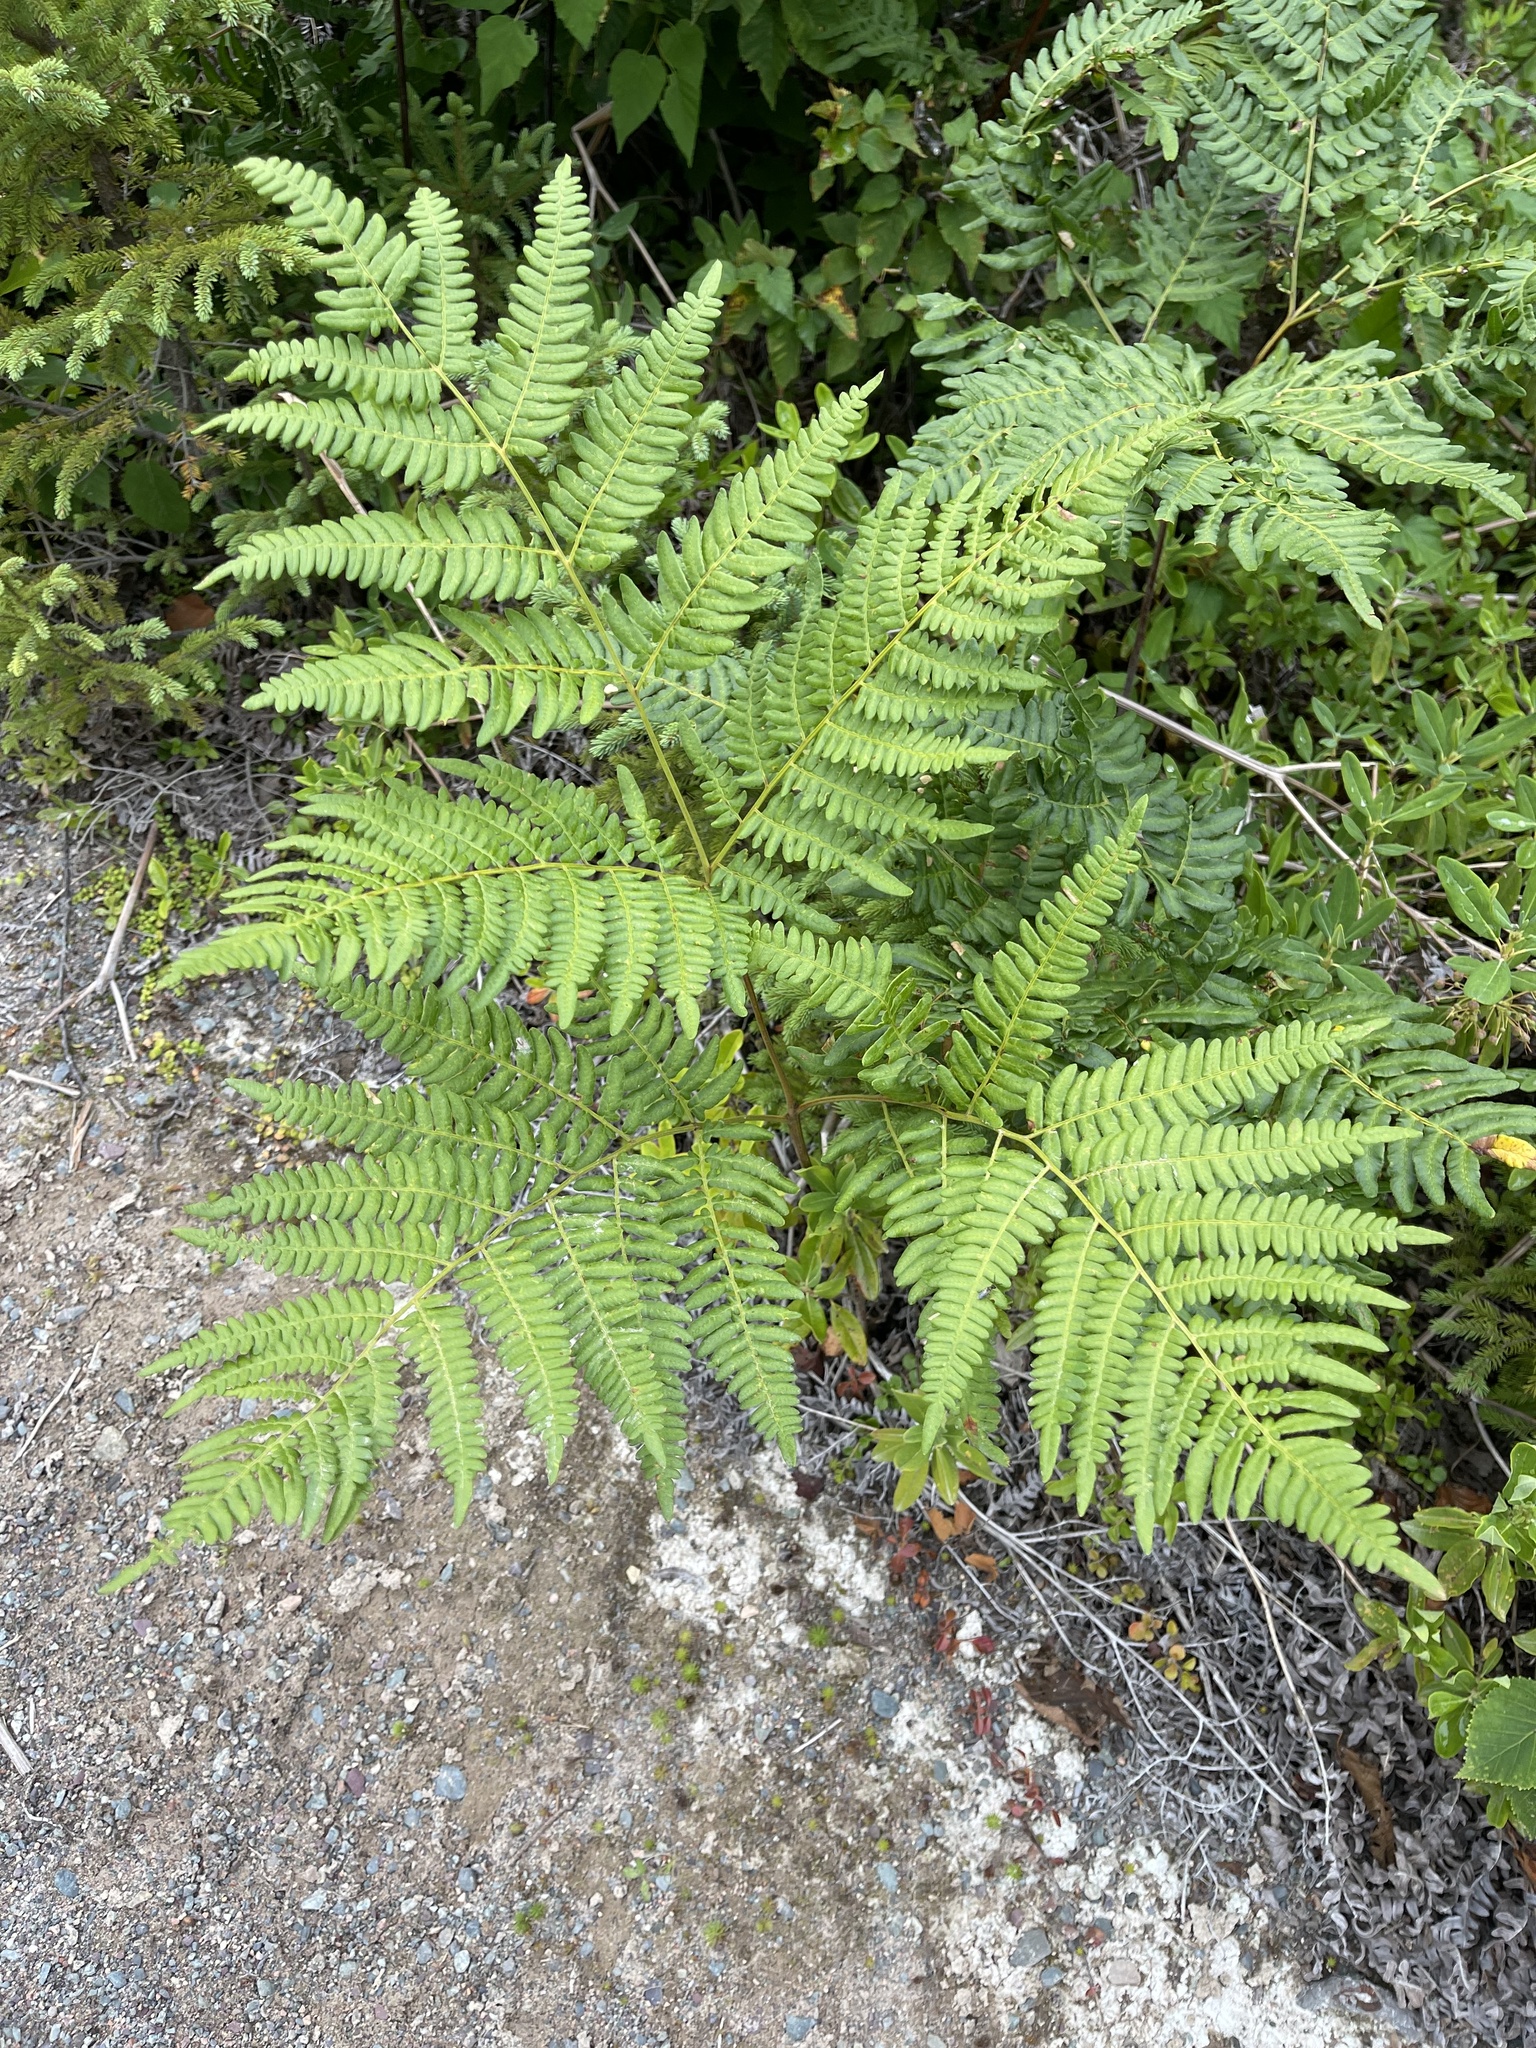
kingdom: Plantae
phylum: Tracheophyta
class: Polypodiopsida
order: Polypodiales
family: Dennstaedtiaceae
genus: Pteridium
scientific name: Pteridium aquilinum
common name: Bracken
